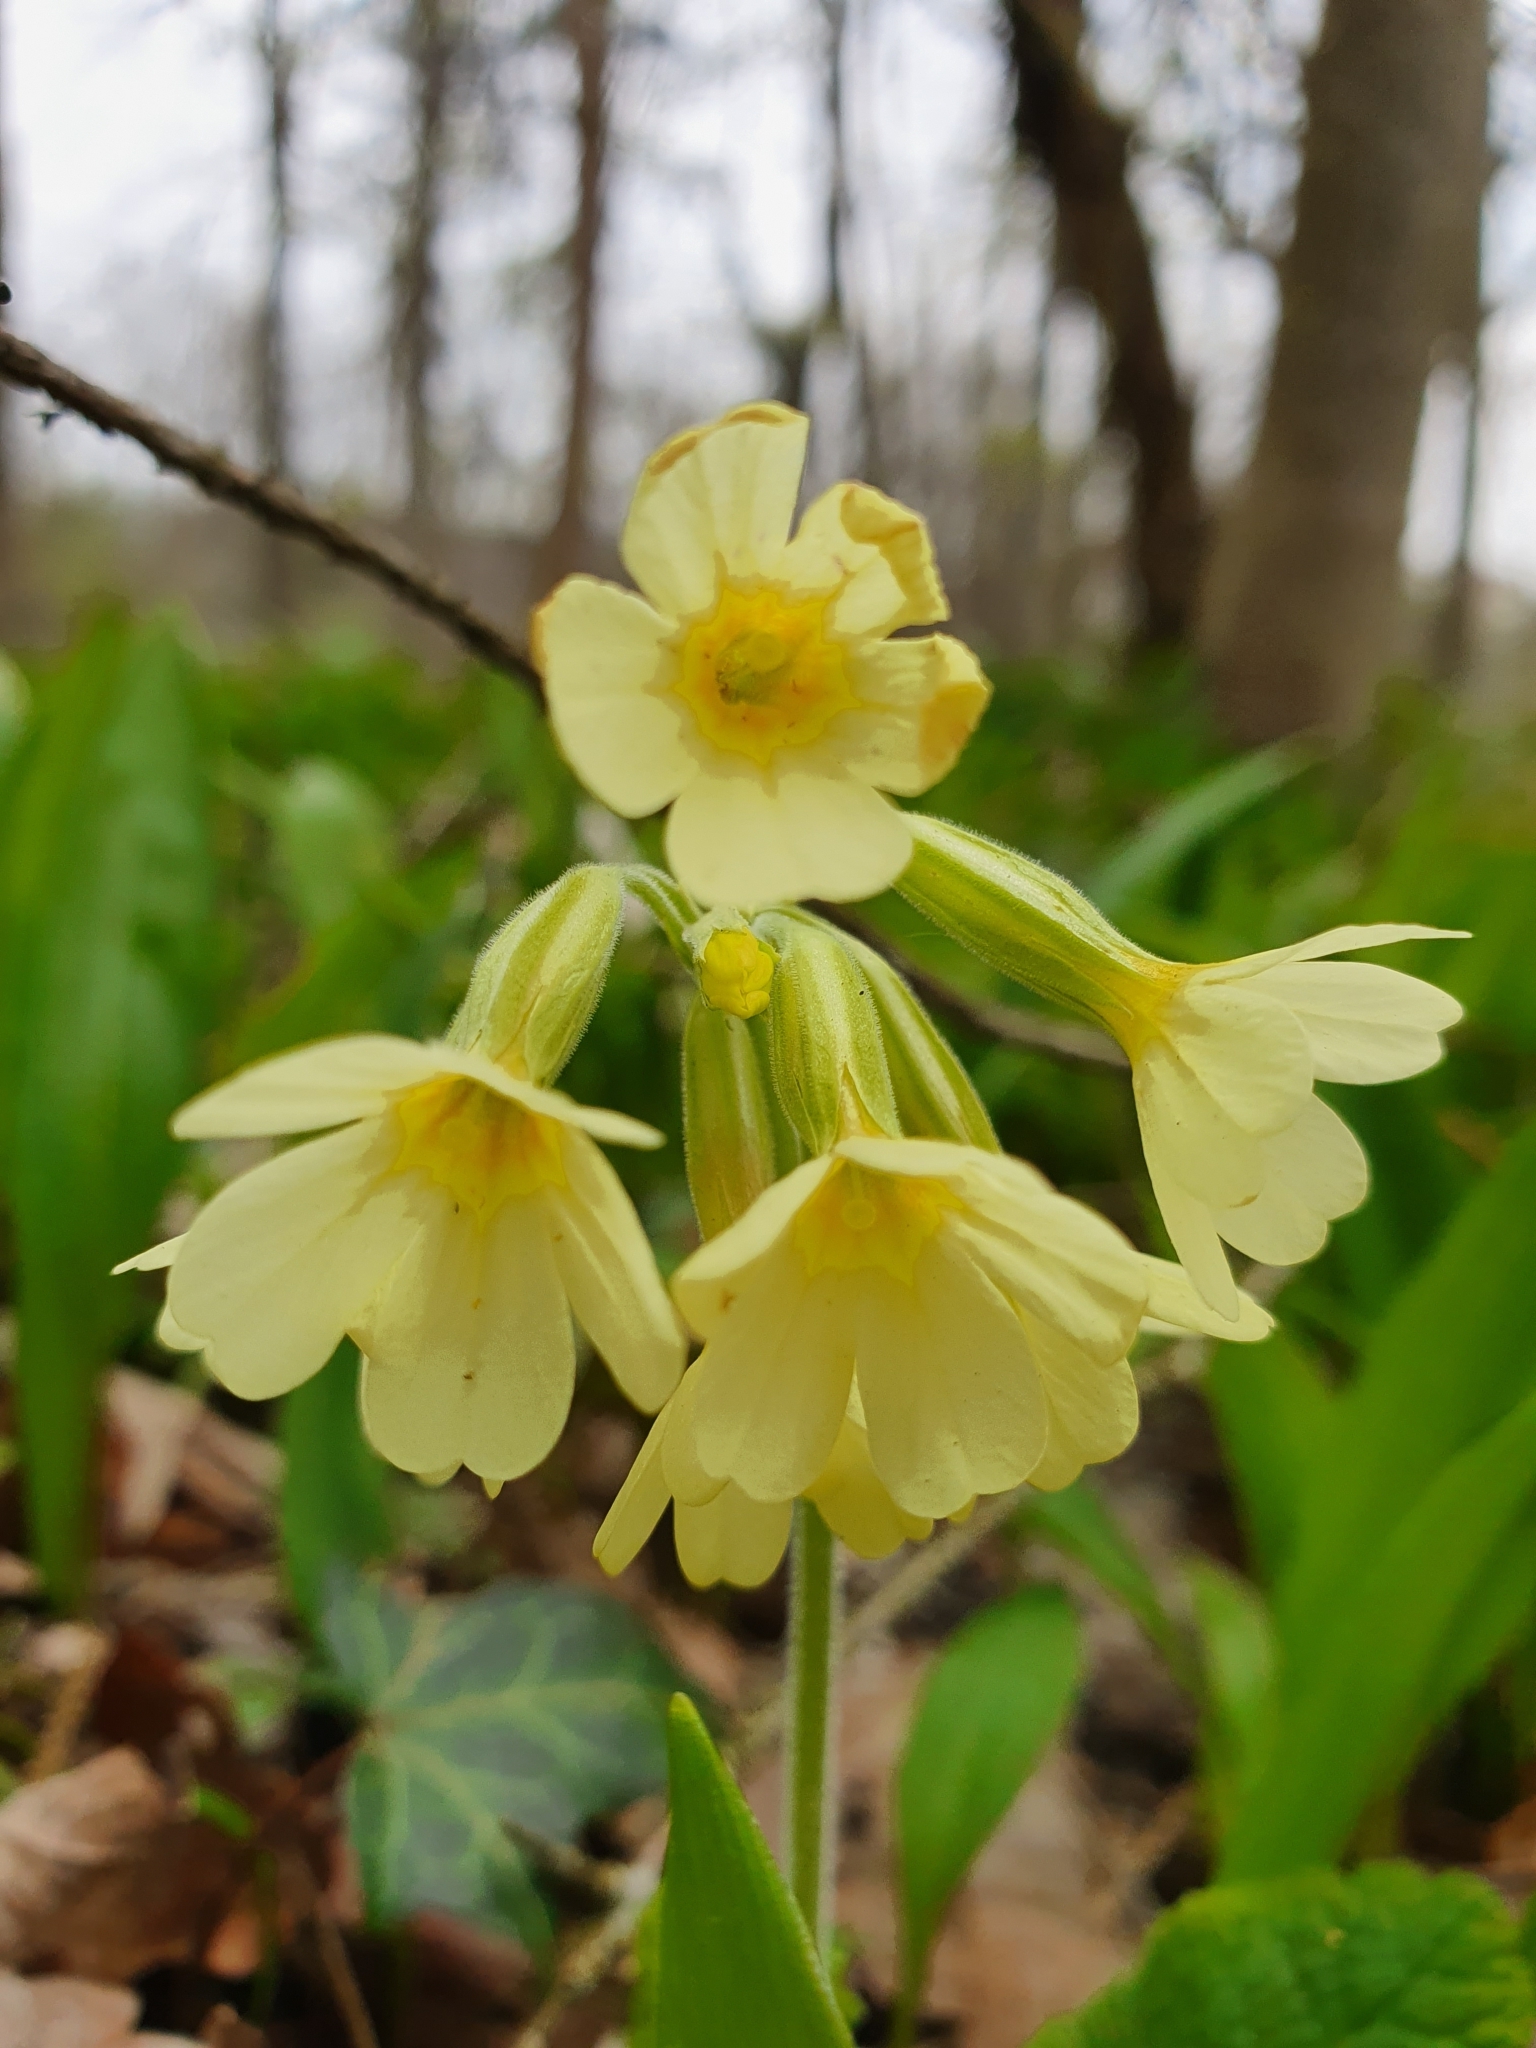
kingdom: Plantae
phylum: Tracheophyta
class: Magnoliopsida
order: Ericales
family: Primulaceae
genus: Primula
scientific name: Primula elatior
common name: Oxlip
